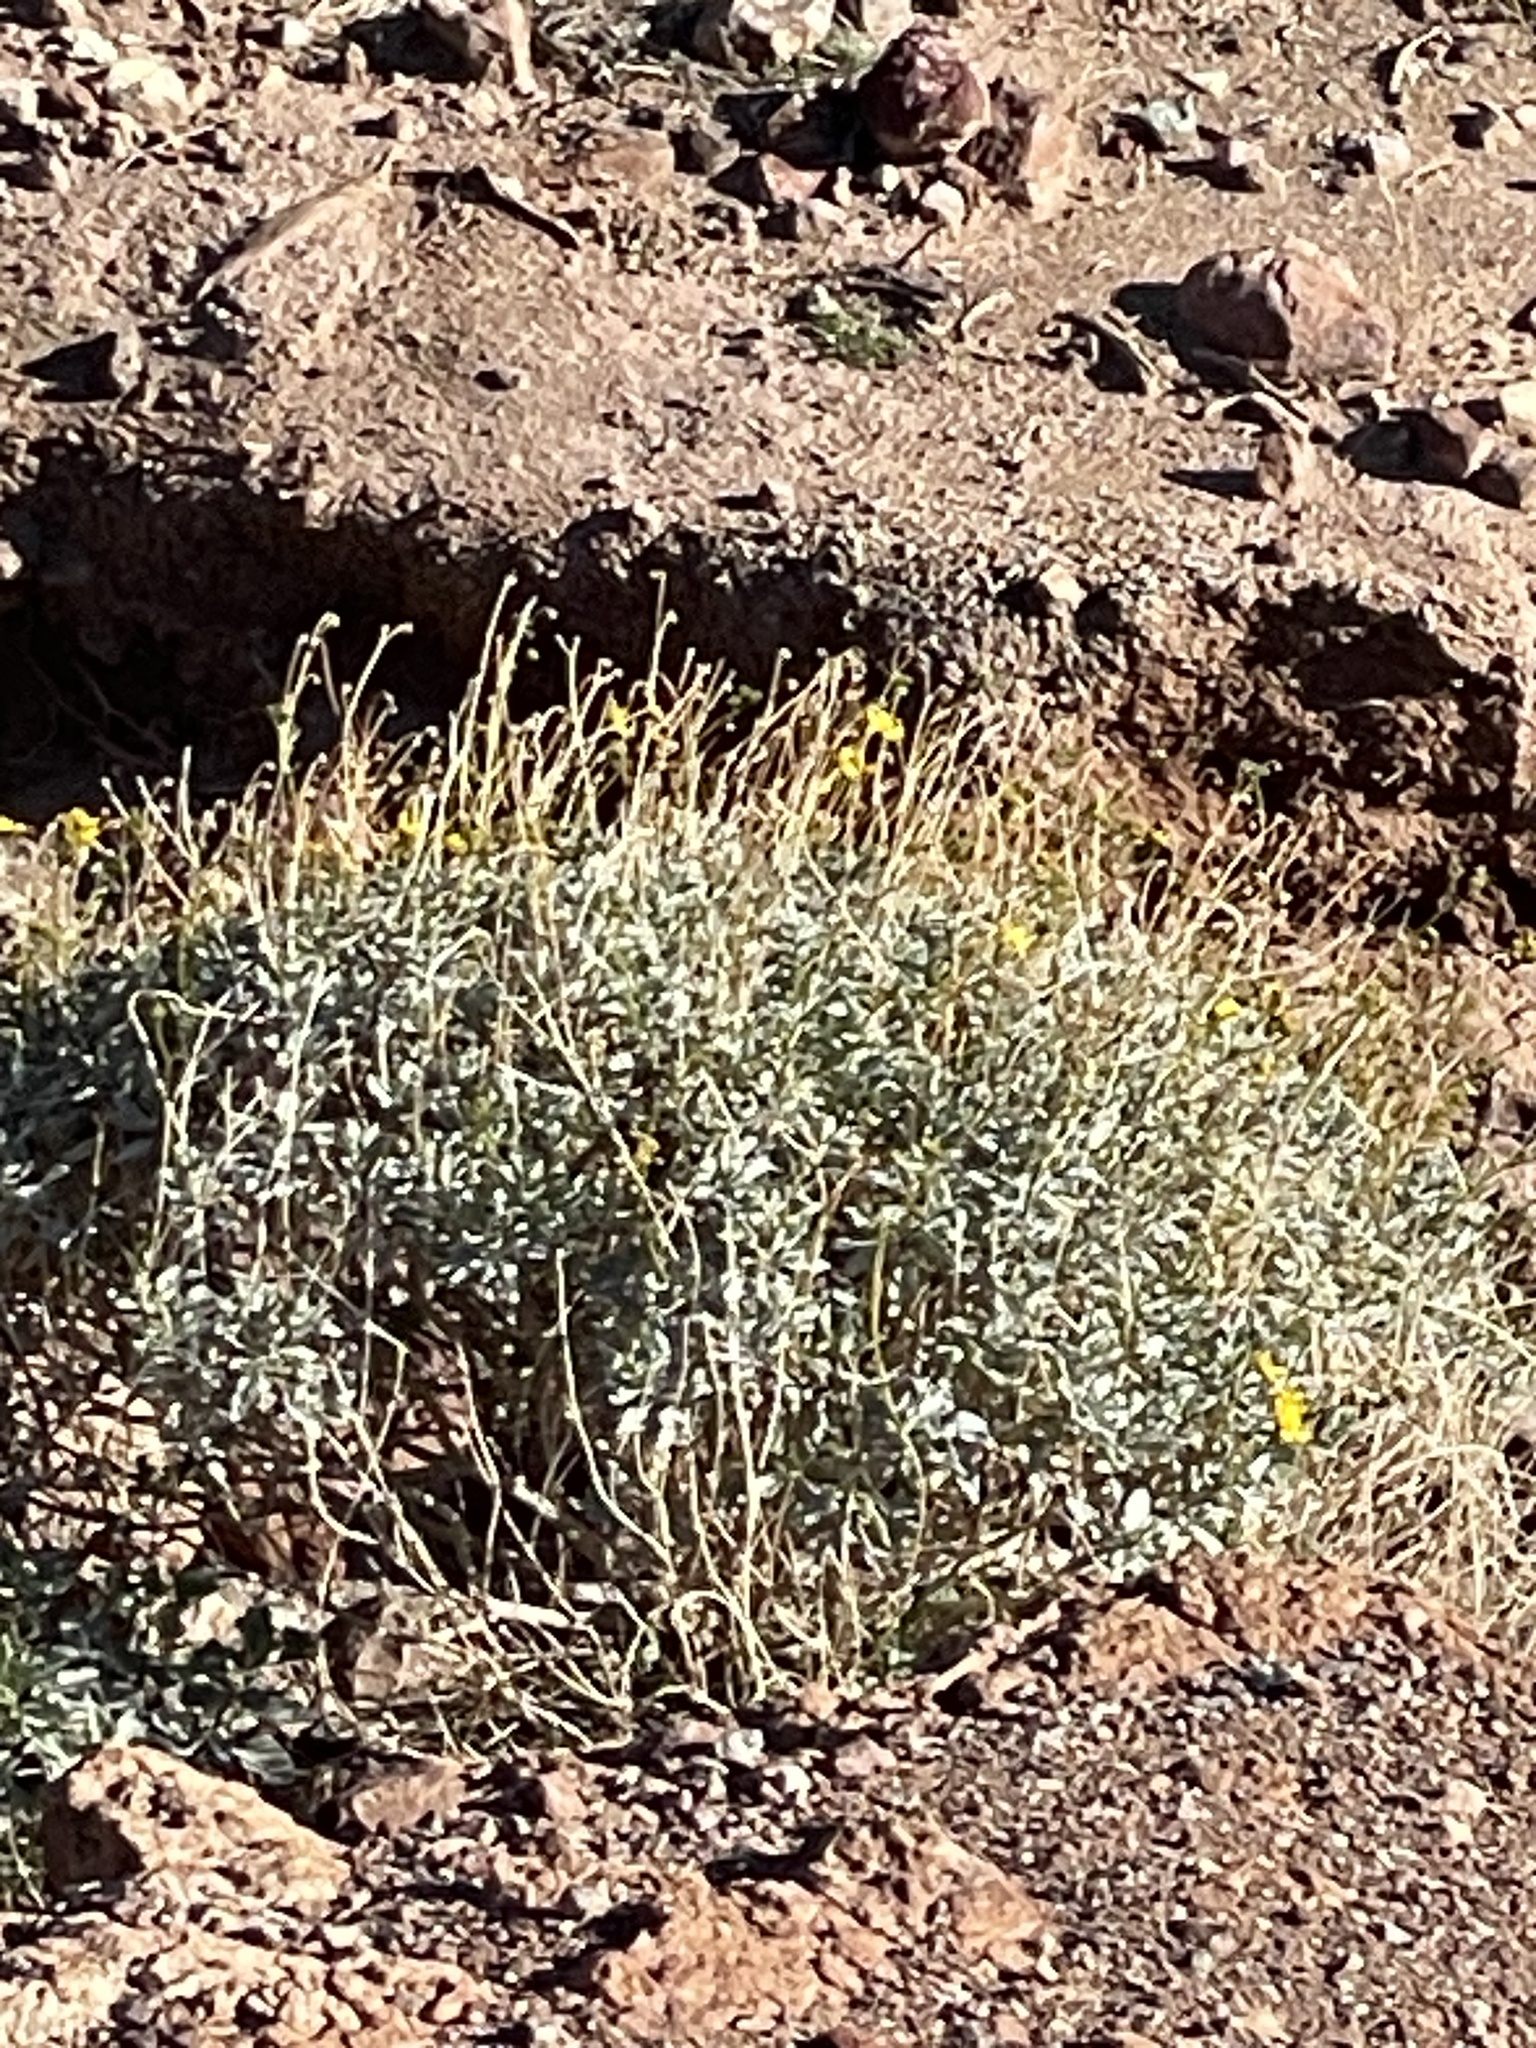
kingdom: Plantae
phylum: Tracheophyta
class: Magnoliopsida
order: Asterales
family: Asteraceae
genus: Encelia
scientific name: Encelia farinosa
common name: Brittlebush
